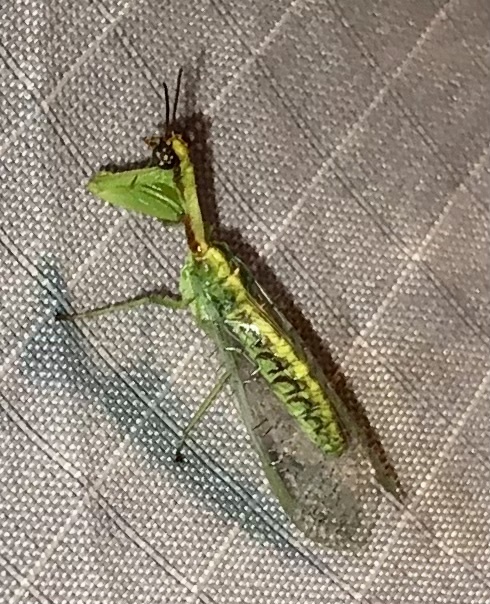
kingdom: Animalia
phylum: Arthropoda
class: Insecta
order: Neuroptera
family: Mantispidae
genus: Zeugomantispa
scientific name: Zeugomantispa minuta
